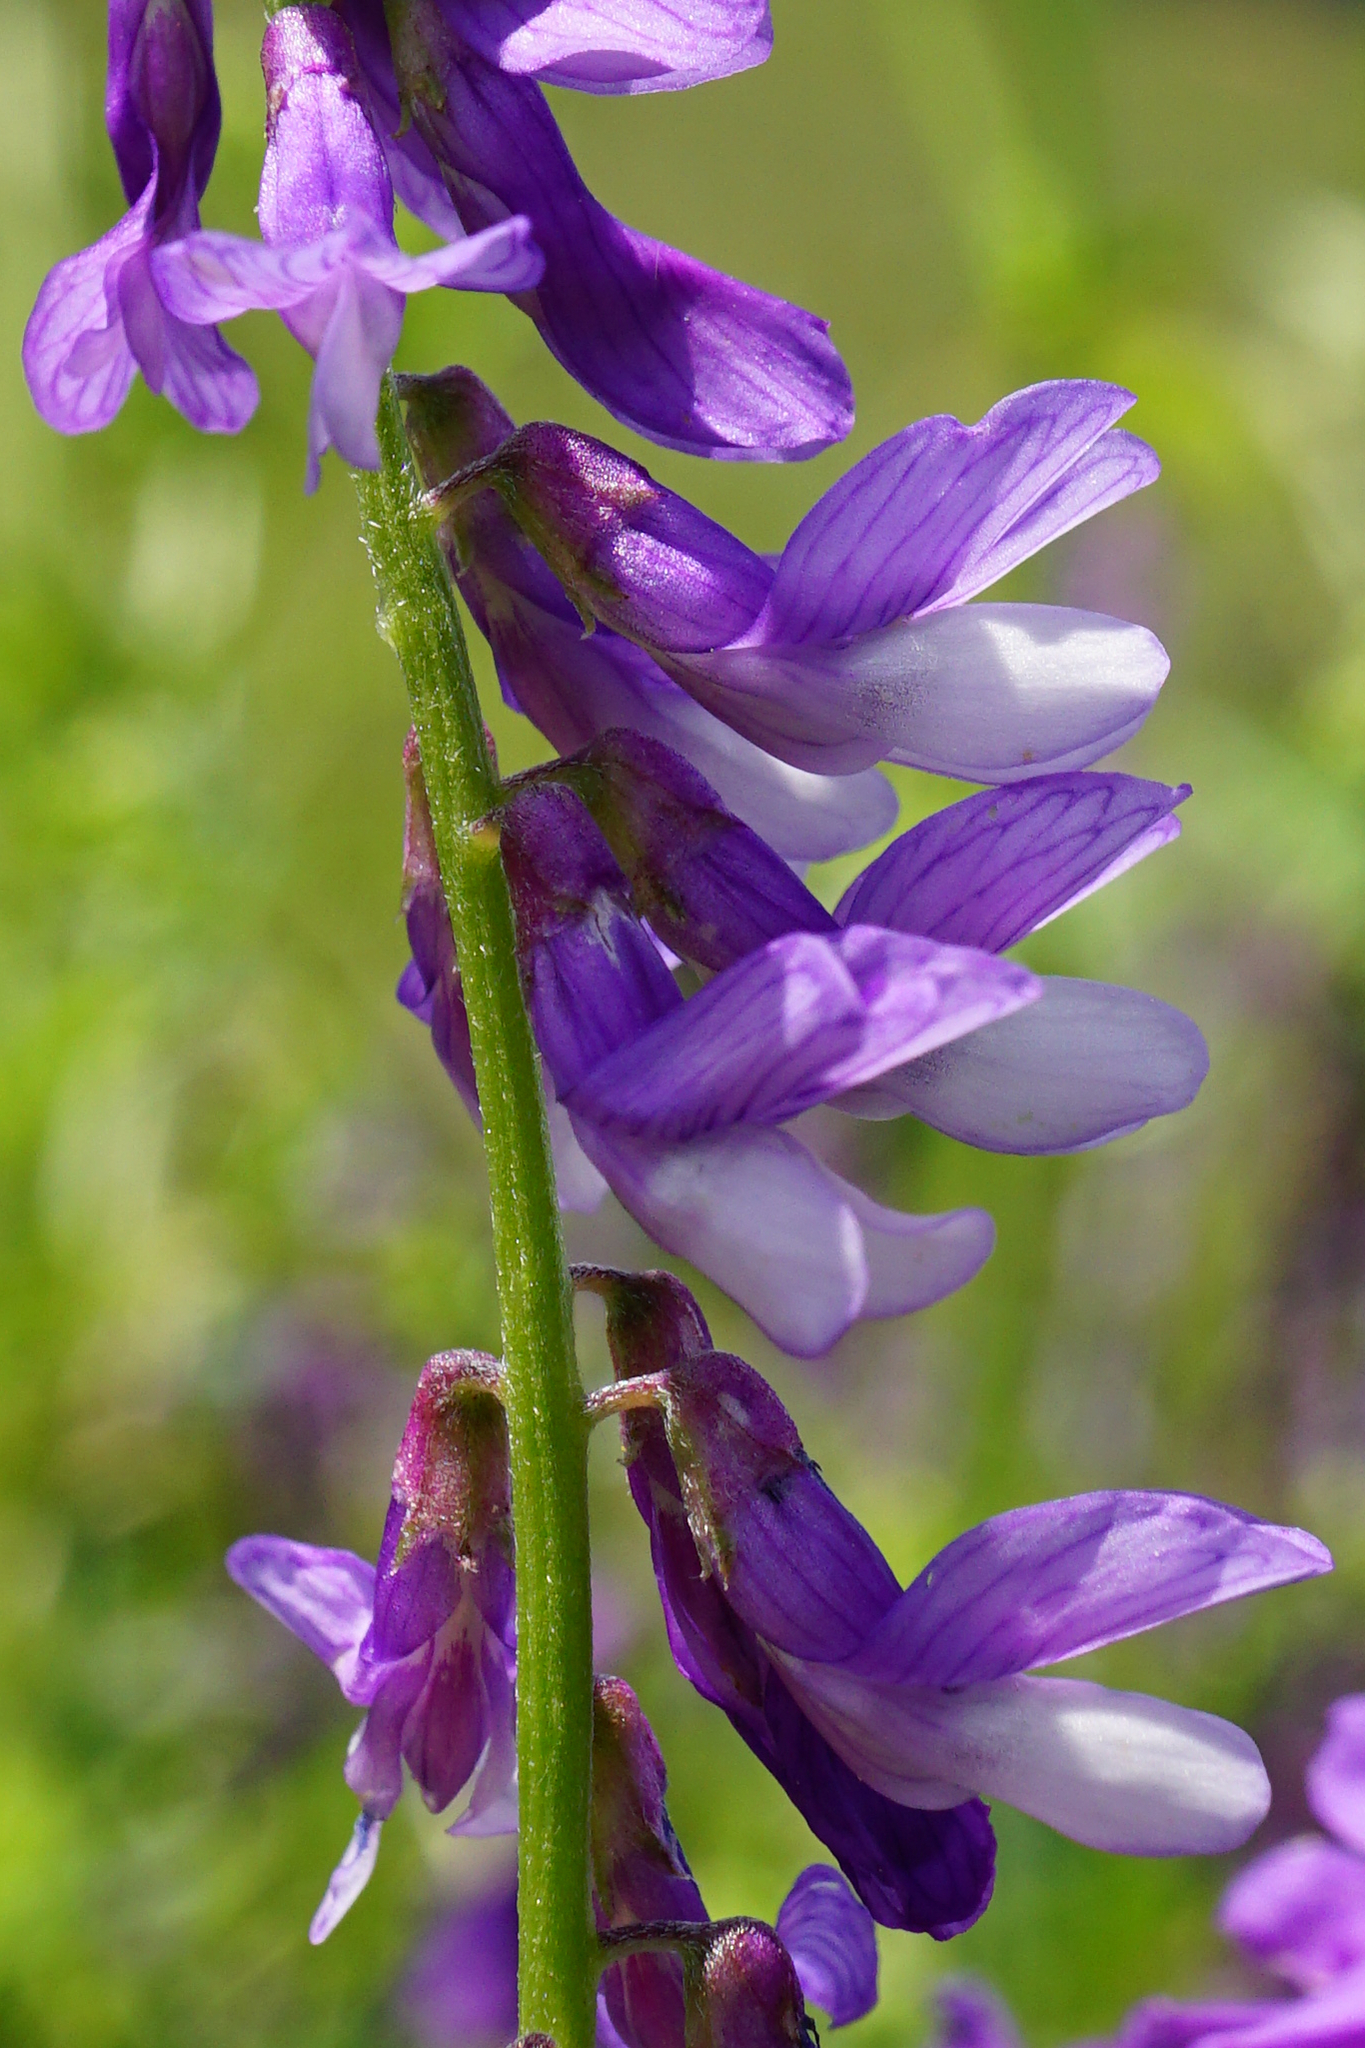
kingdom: Plantae
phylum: Tracheophyta
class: Magnoliopsida
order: Fabales
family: Fabaceae
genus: Vicia
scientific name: Vicia tenuifolia
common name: Fine-leaved vetch
